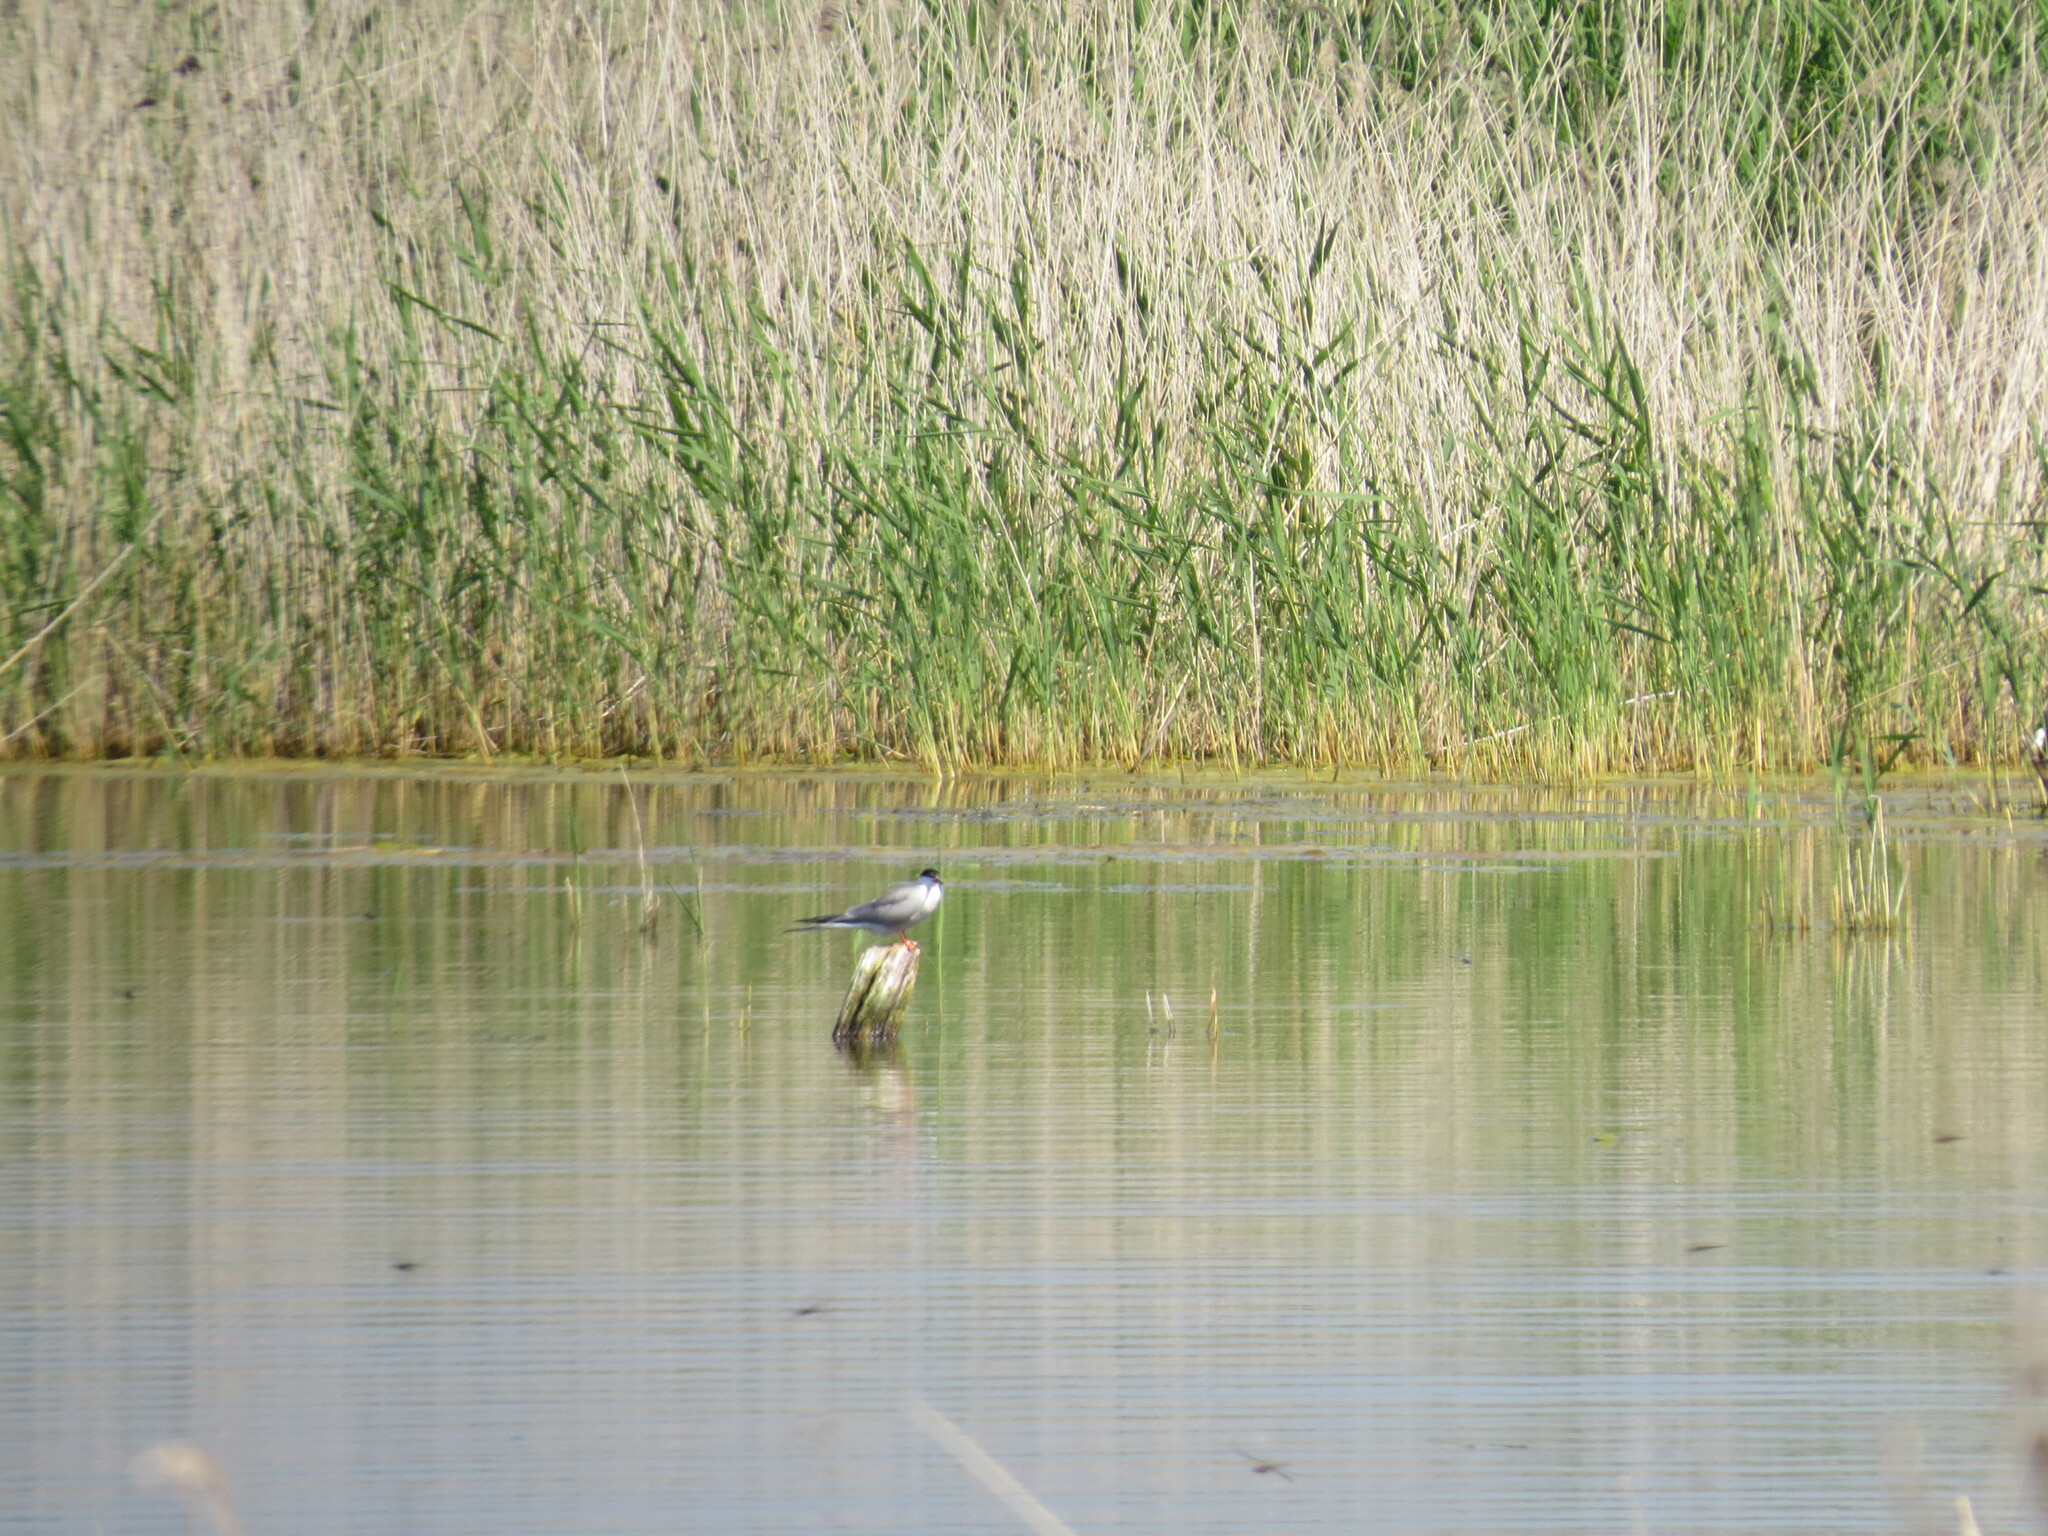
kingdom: Animalia
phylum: Chordata
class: Aves
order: Charadriiformes
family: Laridae
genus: Sterna
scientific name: Sterna hirundo
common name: Common tern
